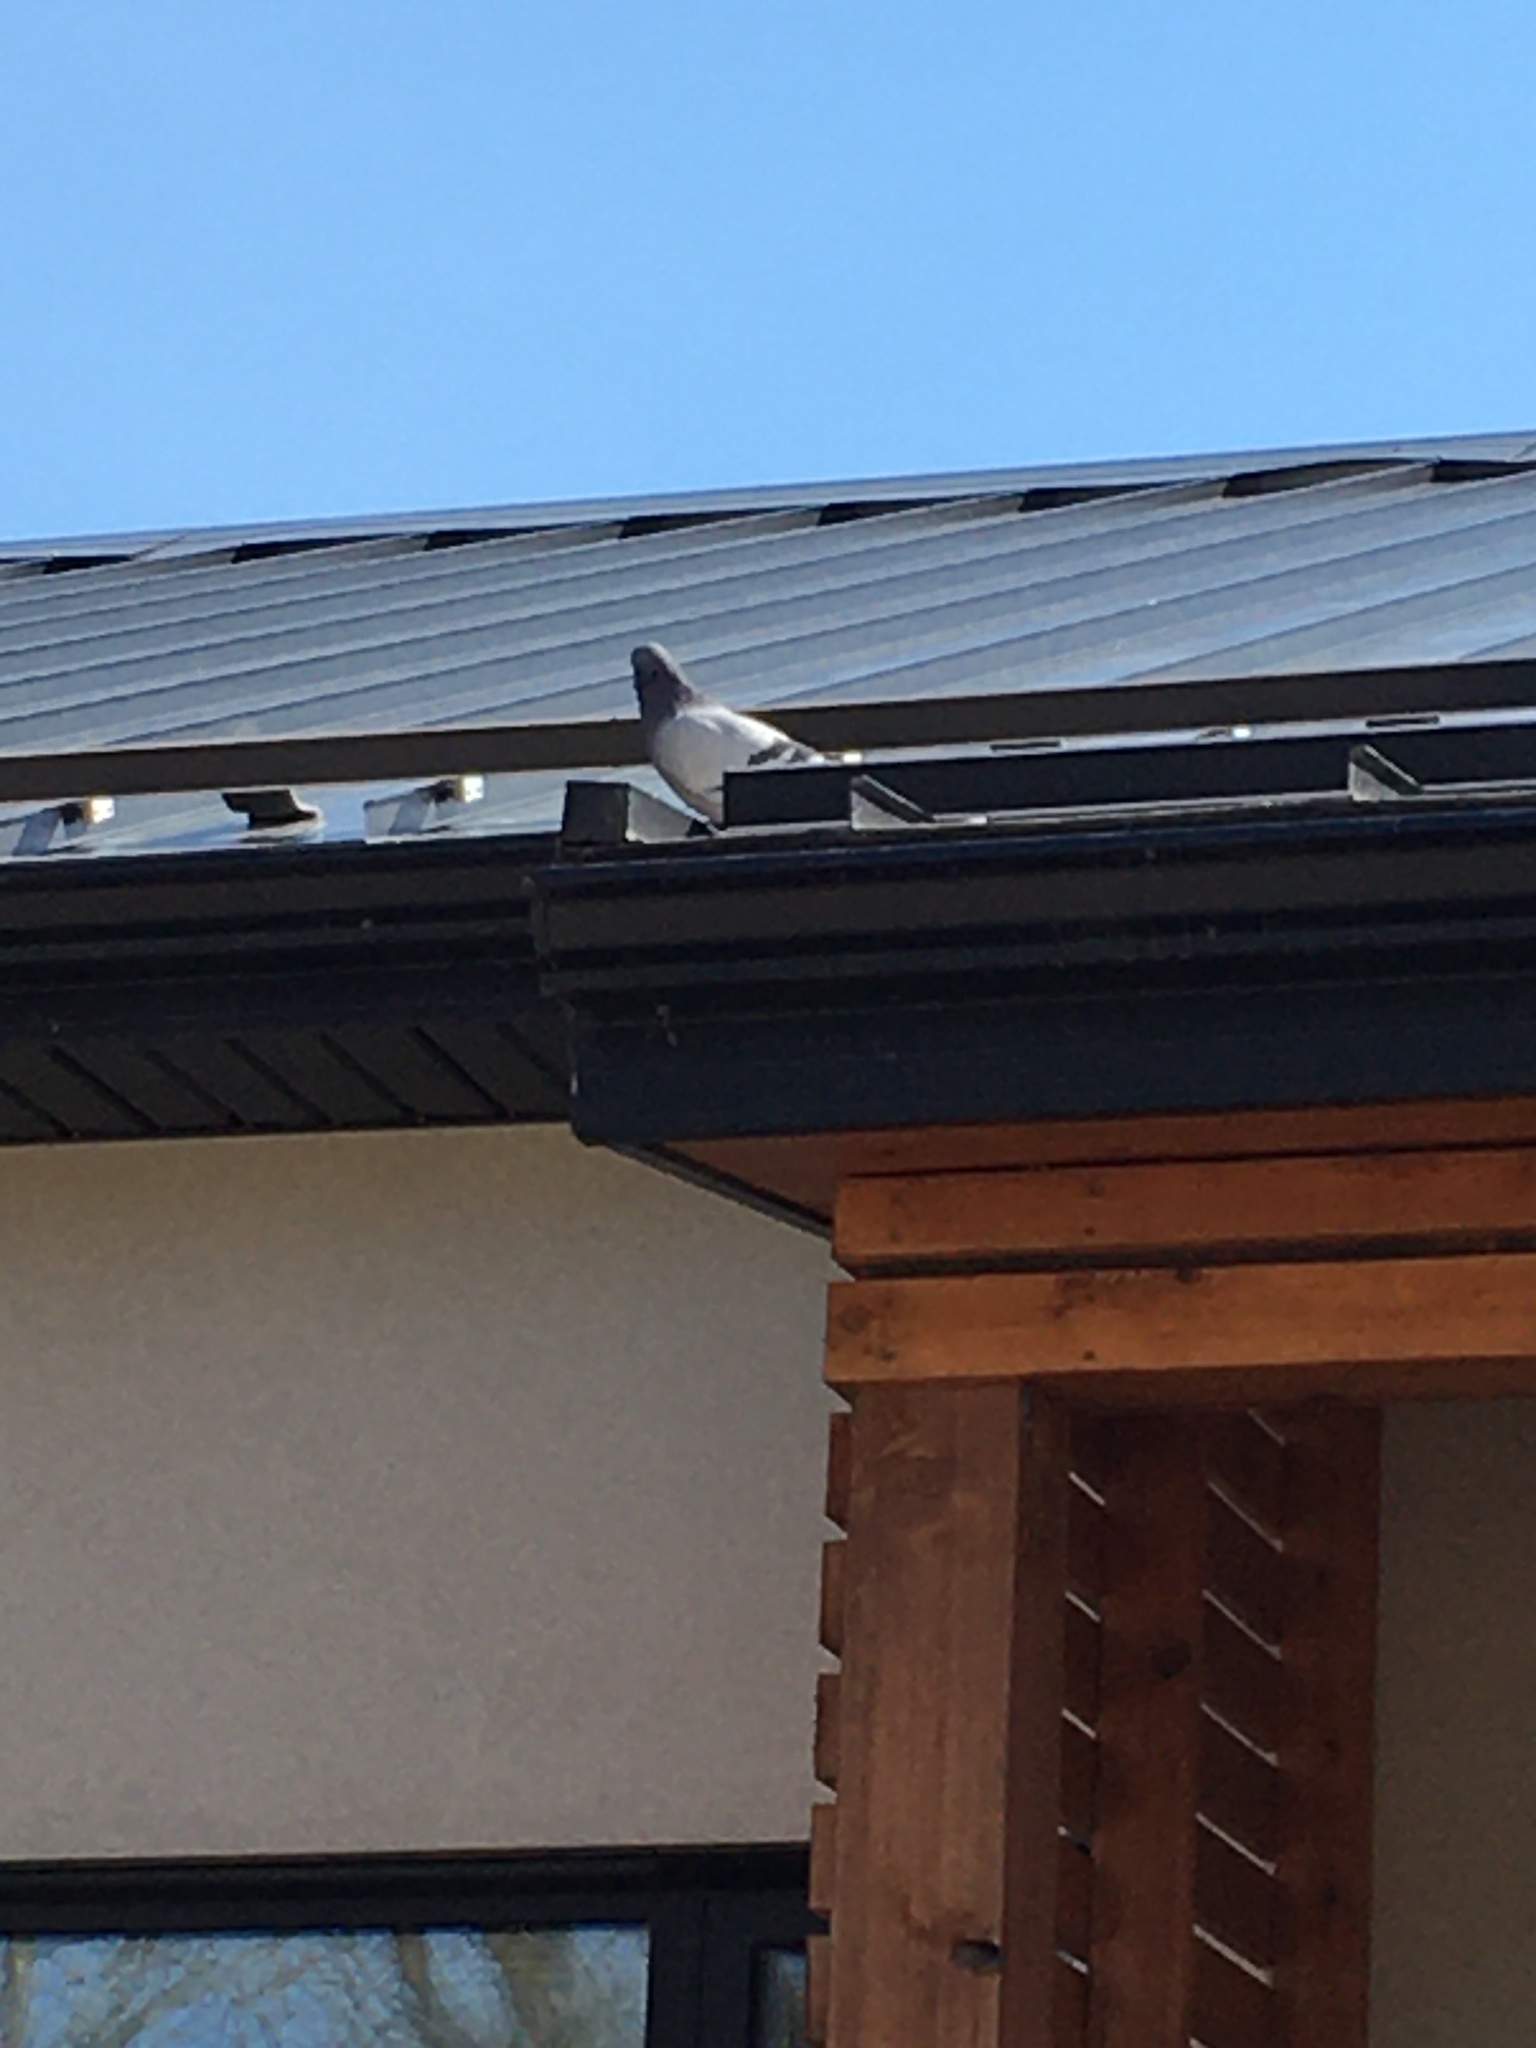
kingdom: Animalia
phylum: Chordata
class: Aves
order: Columbiformes
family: Columbidae
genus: Columba
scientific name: Columba livia
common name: Rock pigeon
